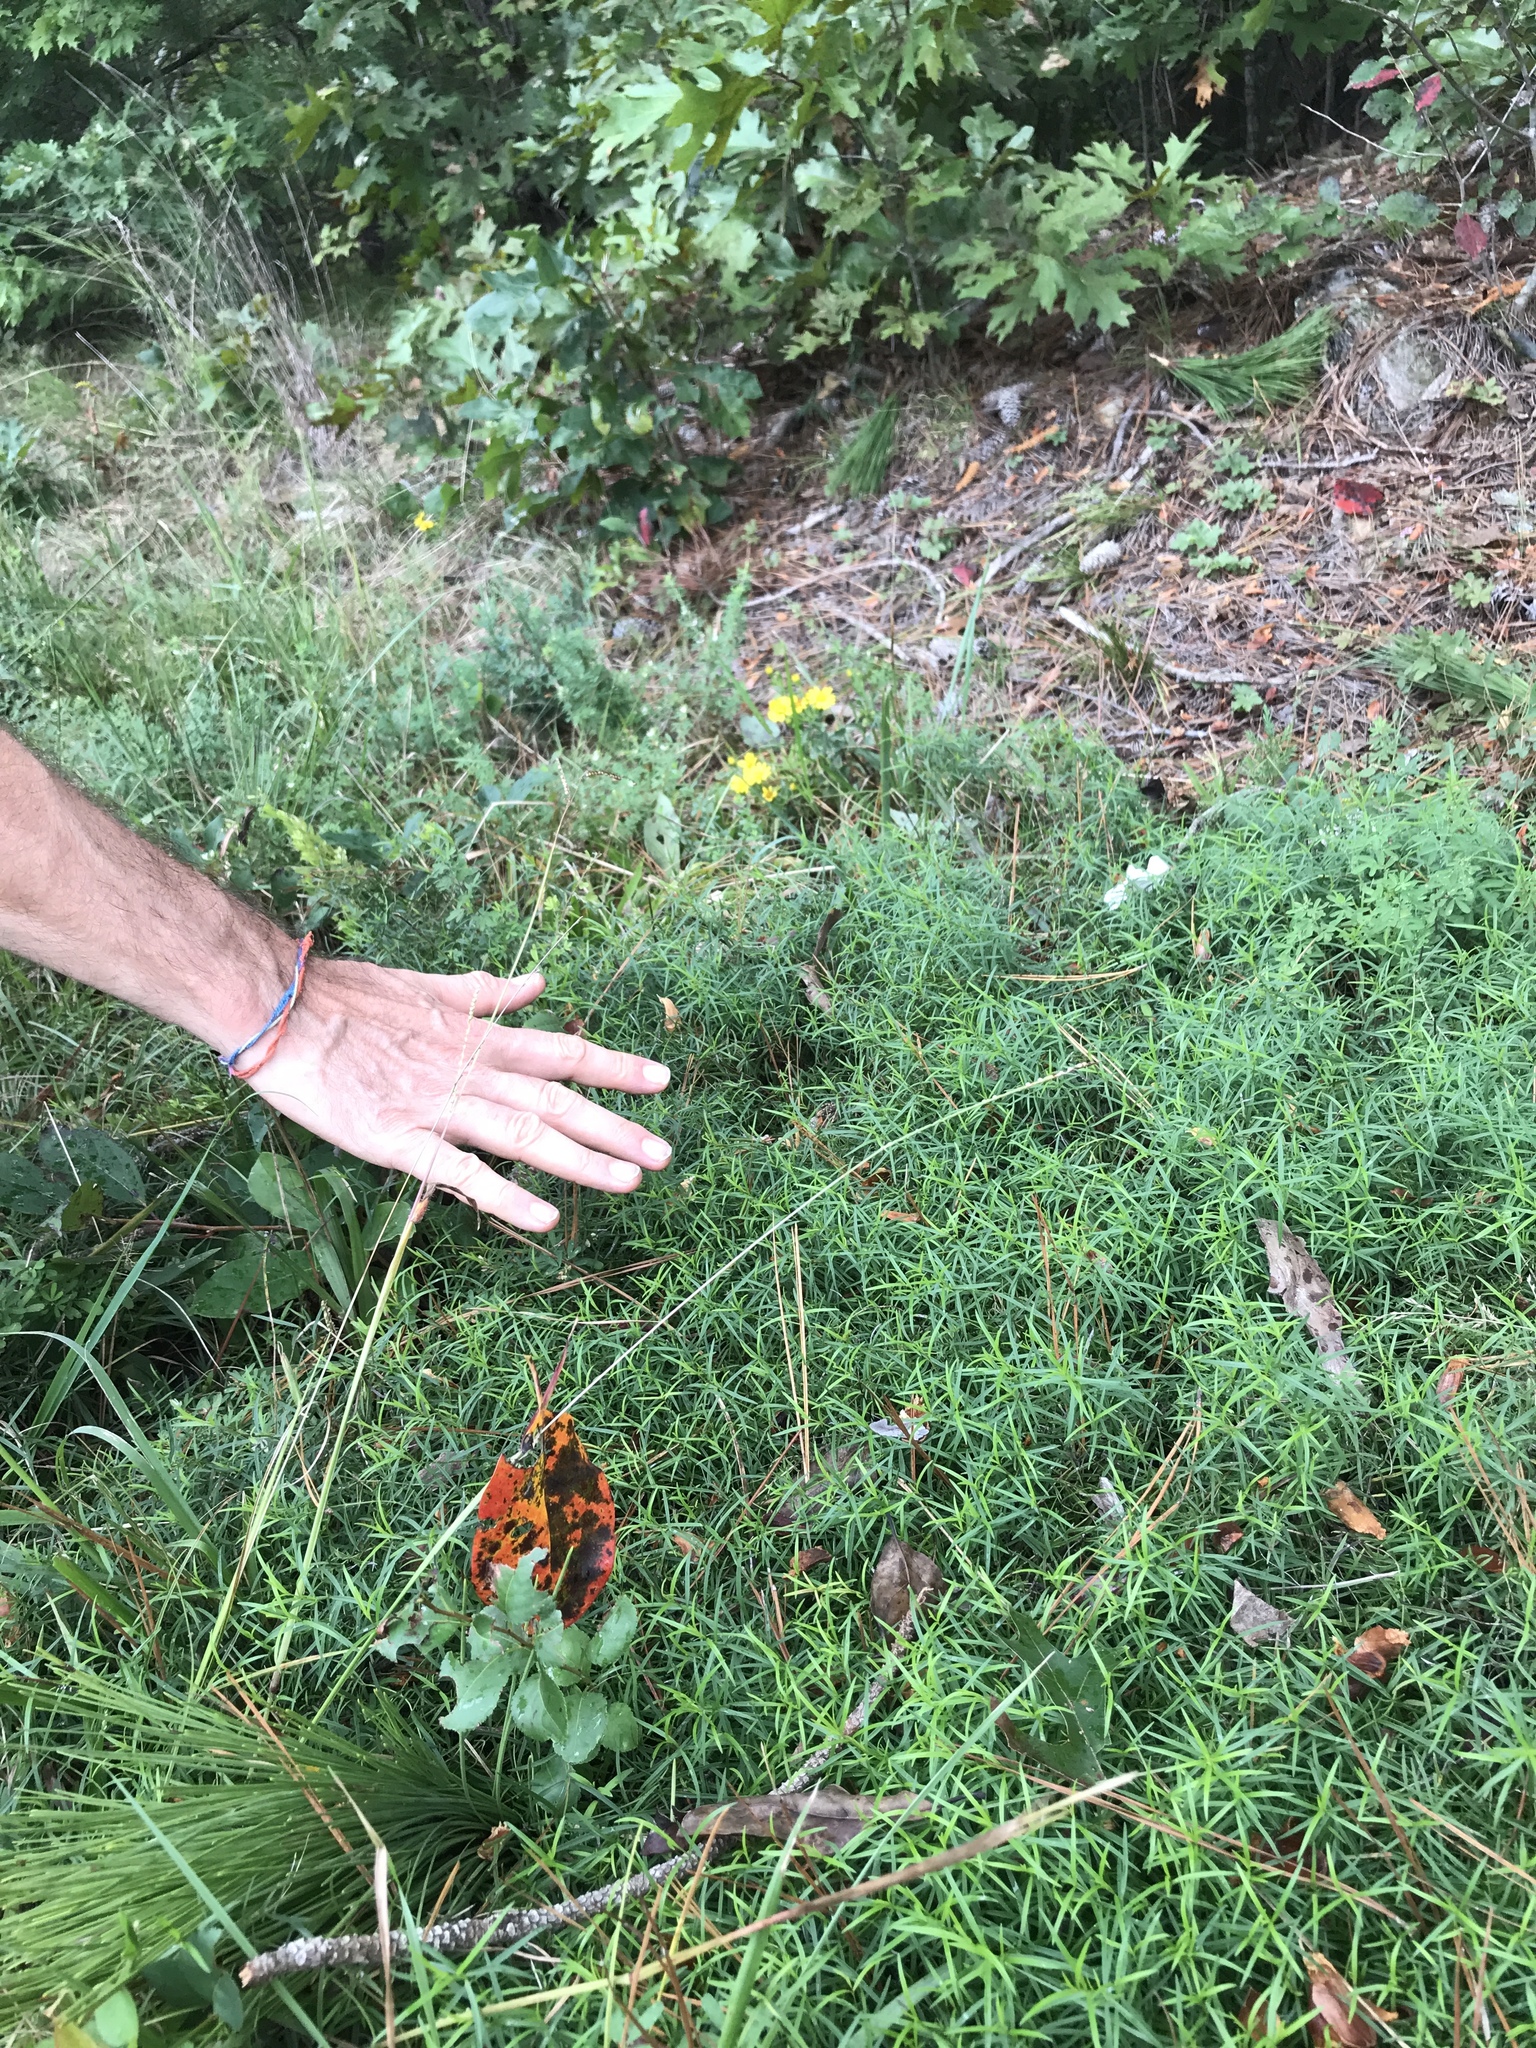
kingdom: Plantae
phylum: Tracheophyta
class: Magnoliopsida
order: Lamiales
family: Lamiaceae
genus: Pycnanthemum
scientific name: Pycnanthemum tenuifolium
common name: Narrow-leaf mountain-mint
